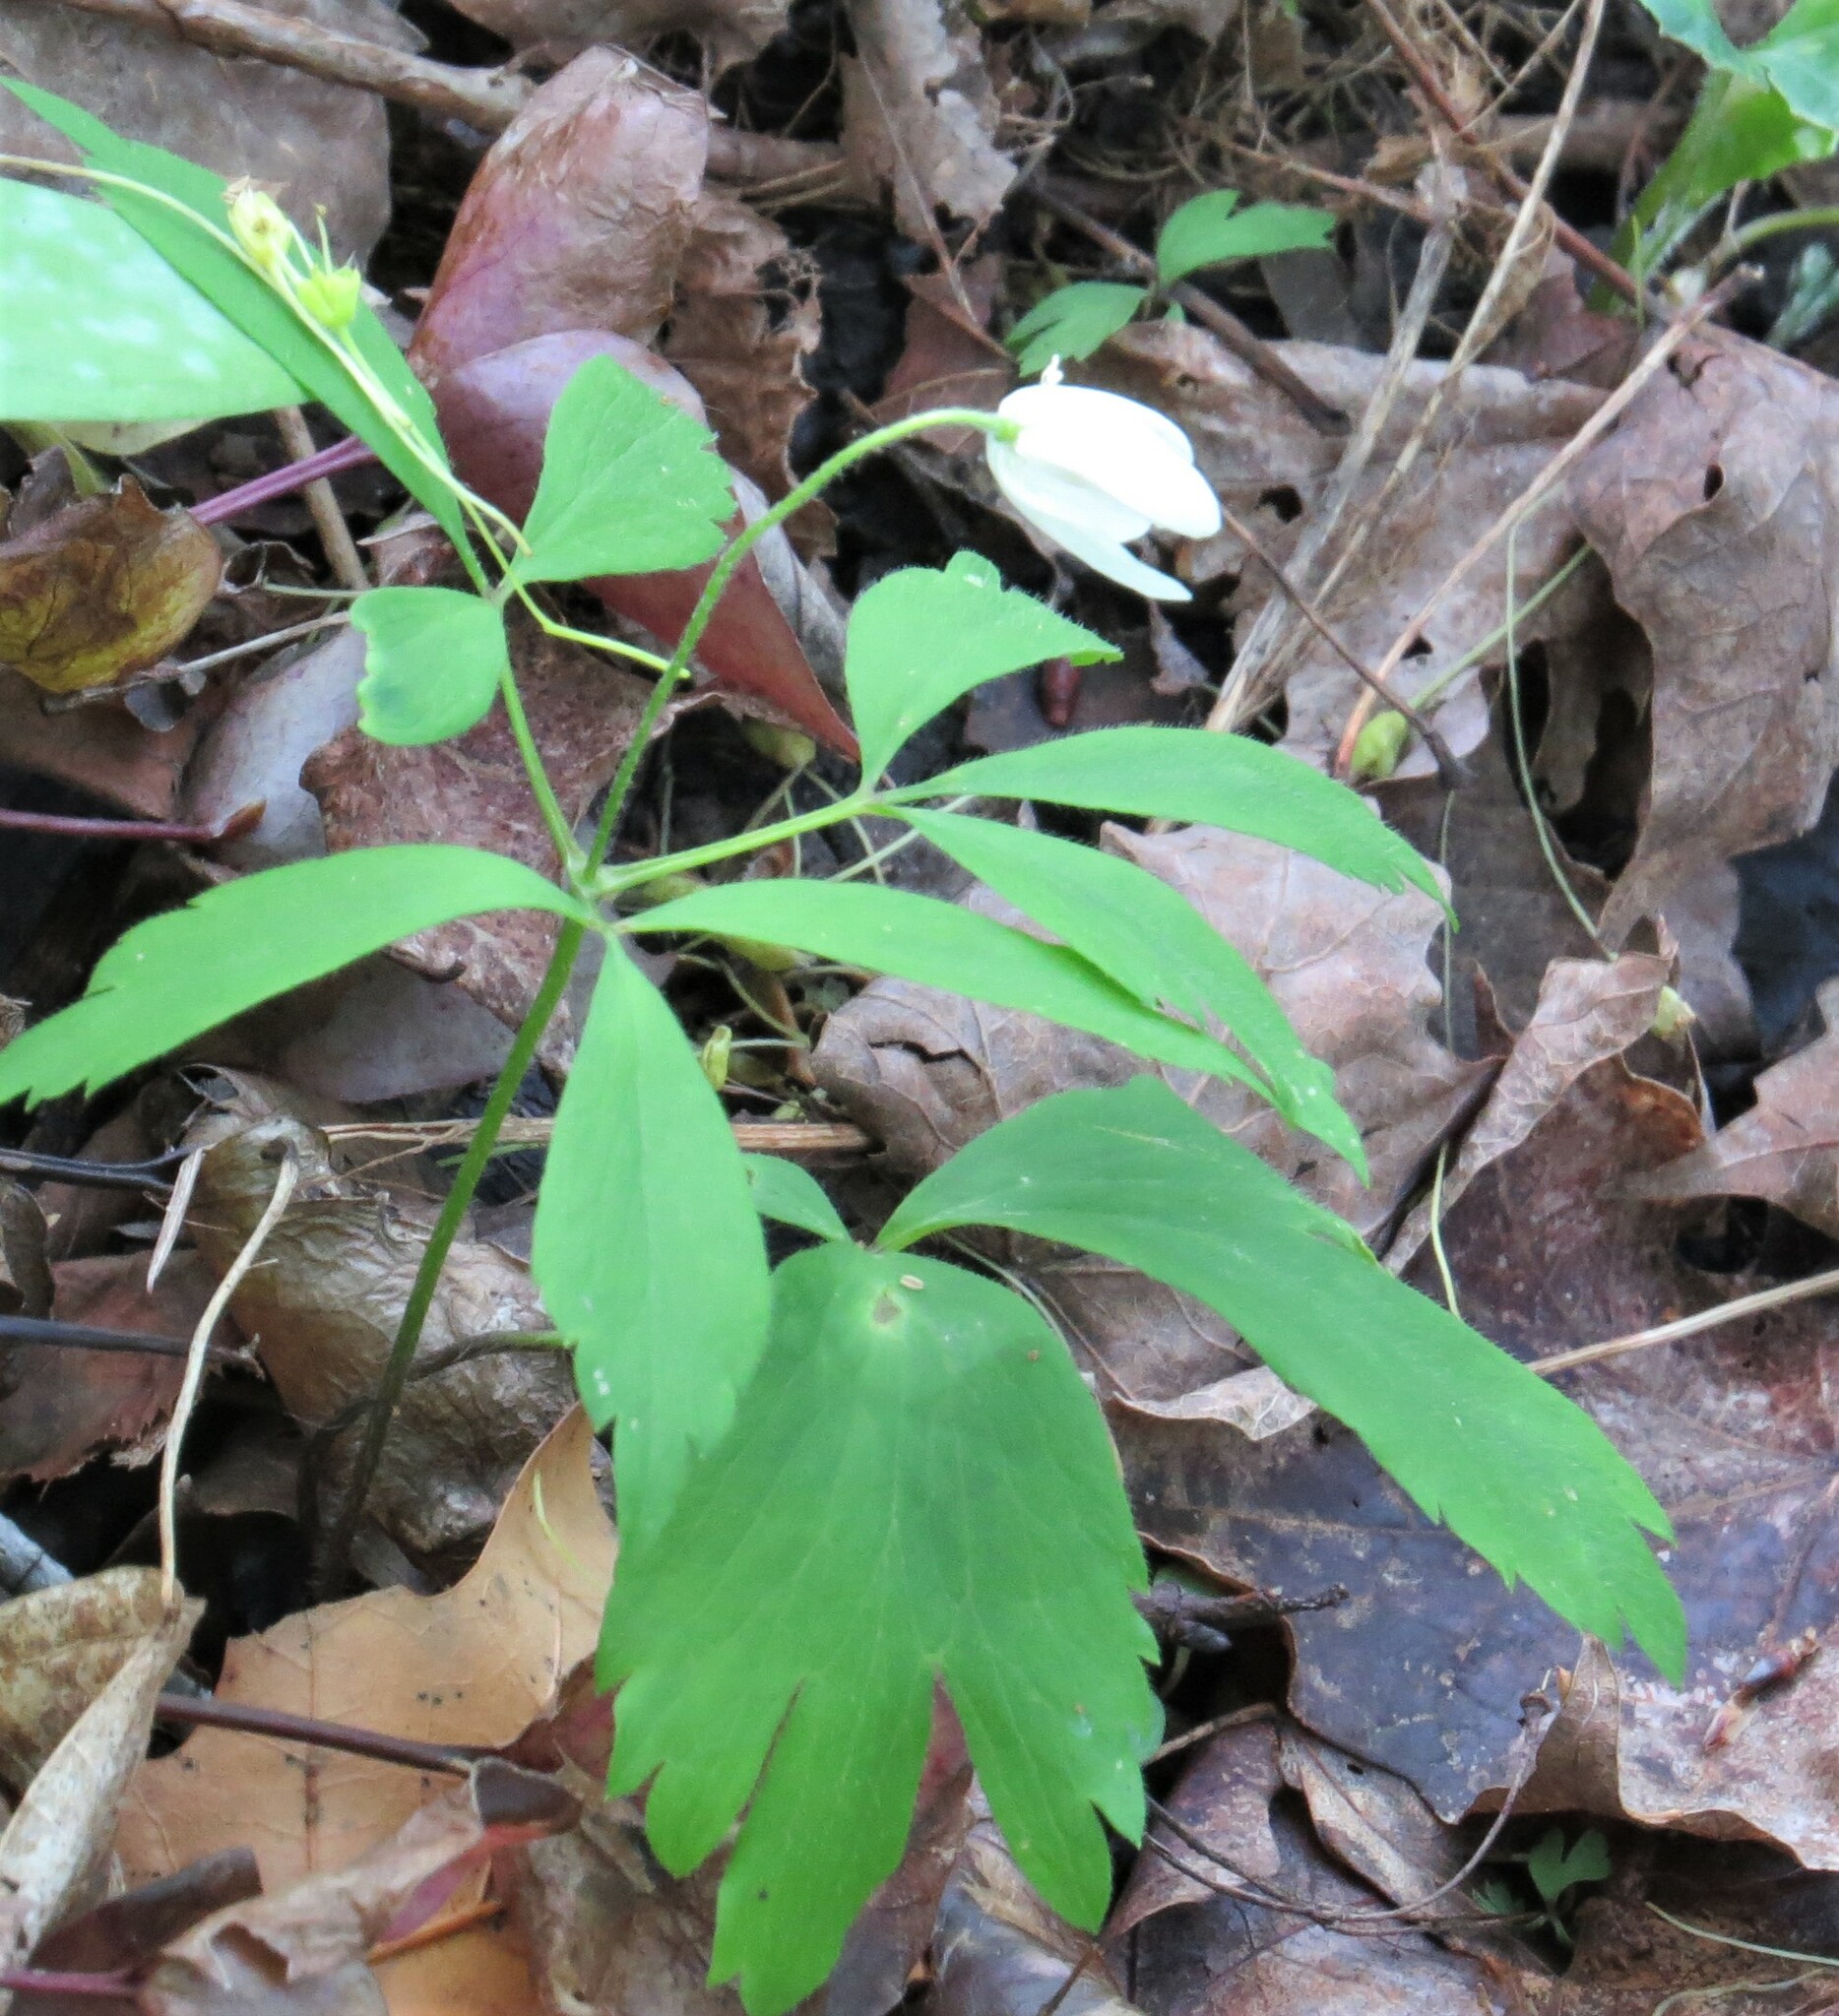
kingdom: Plantae
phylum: Tracheophyta
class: Magnoliopsida
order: Ranunculales
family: Ranunculaceae
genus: Anemone
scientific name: Anemone quinquefolia
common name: Wood anemone
